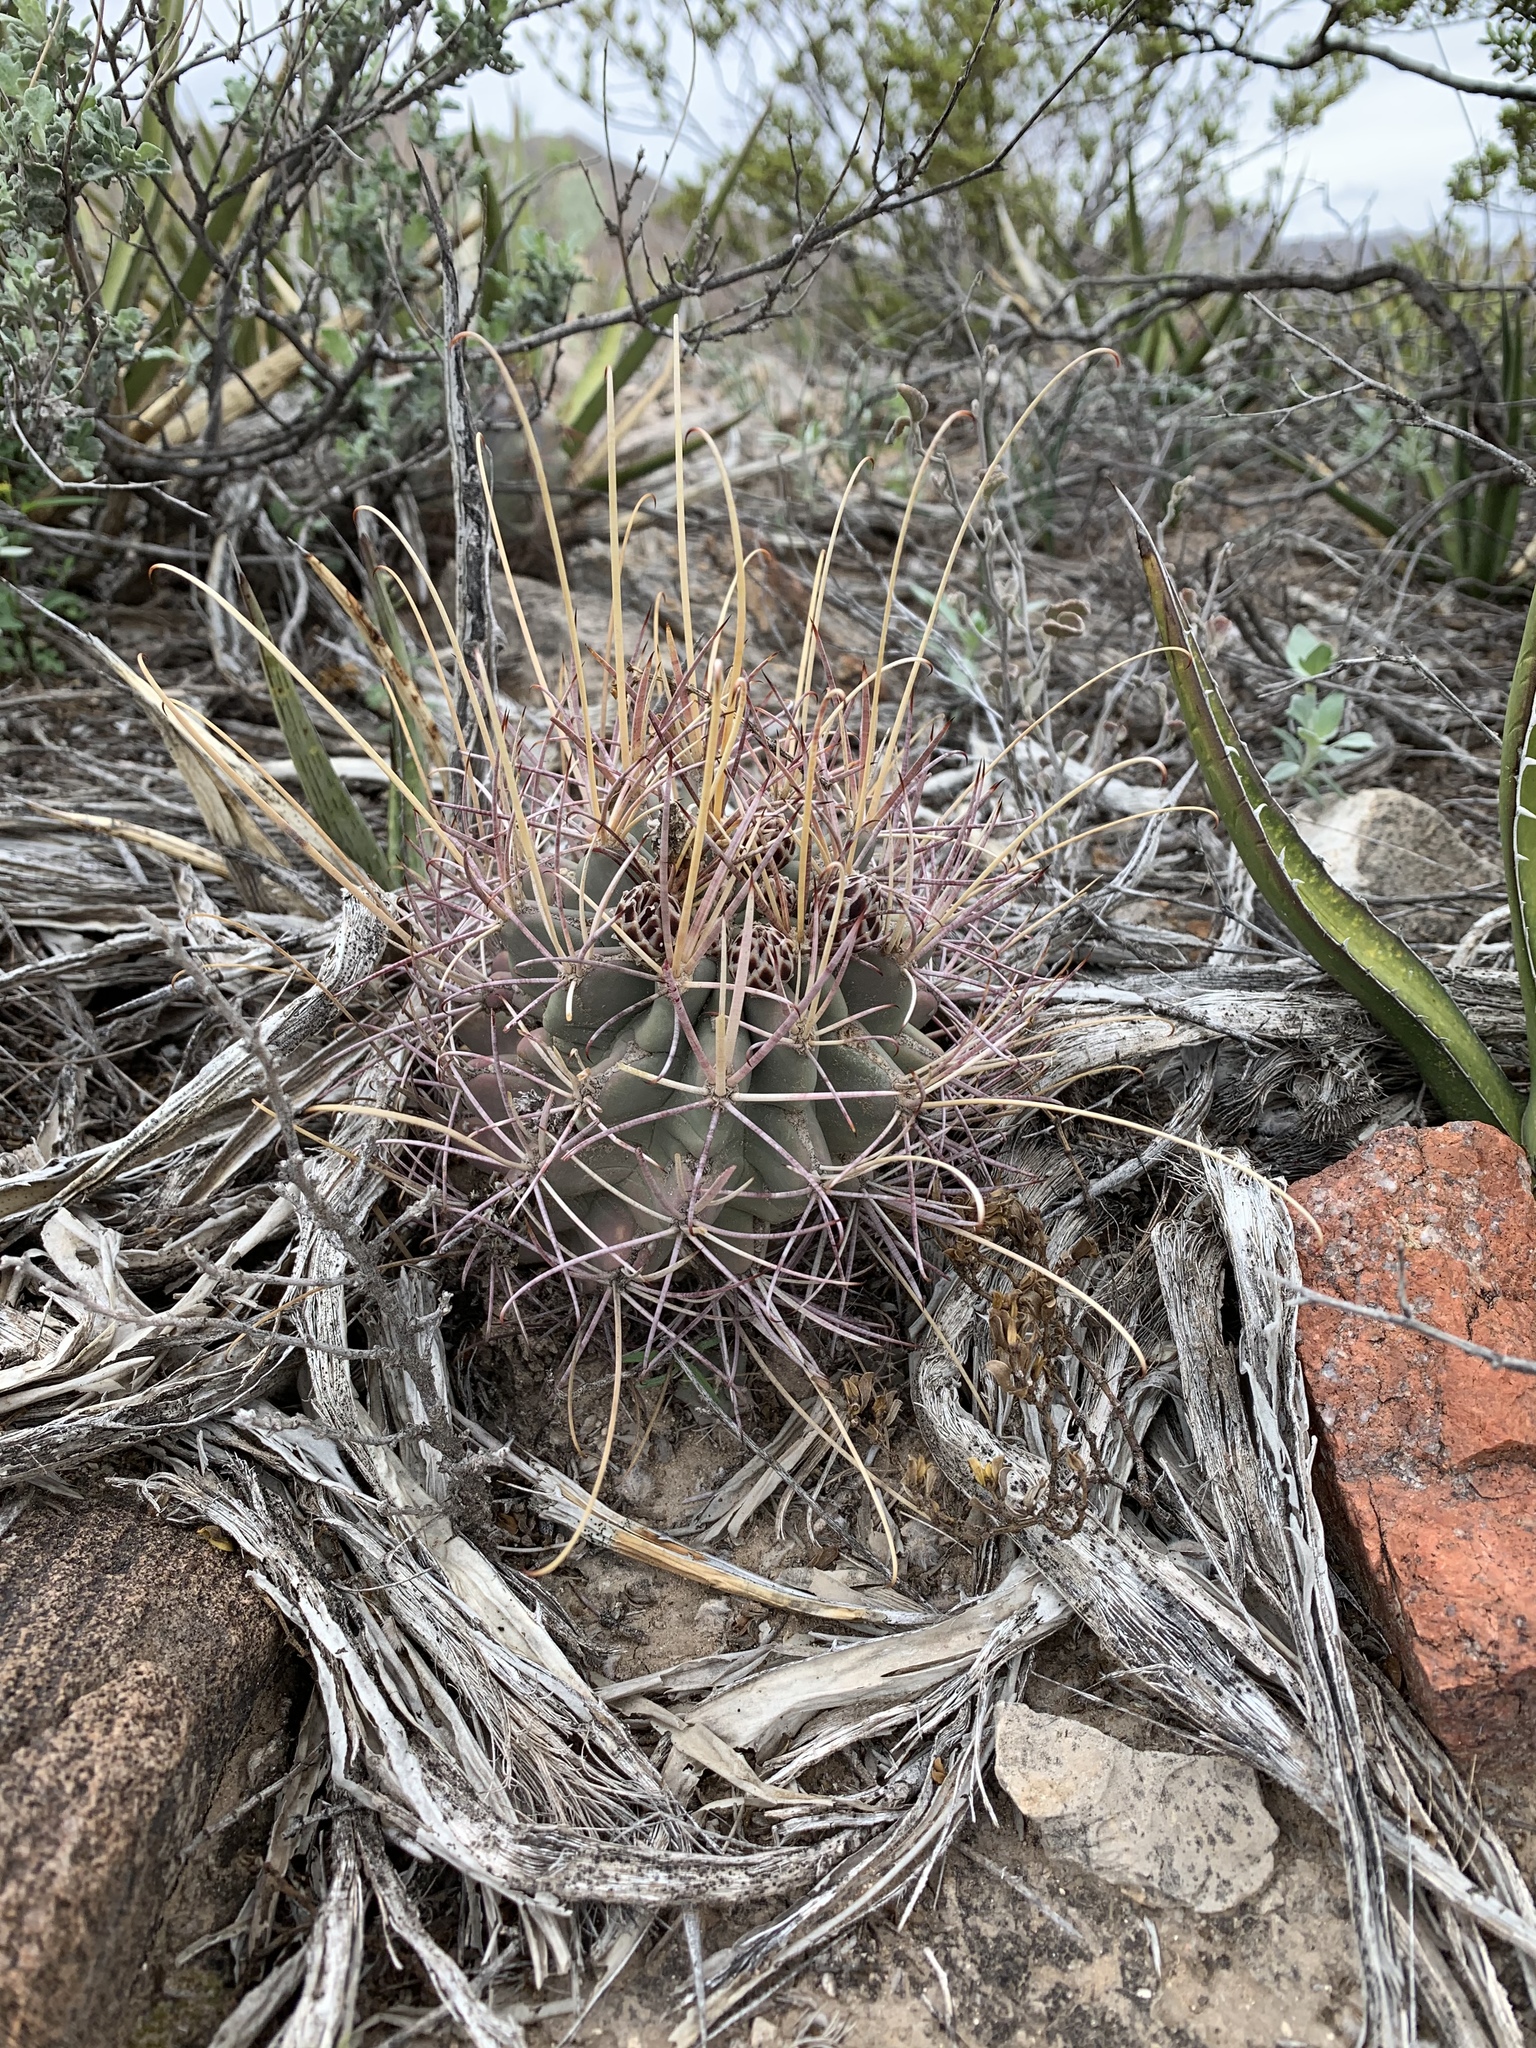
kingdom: Plantae
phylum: Tracheophyta
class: Magnoliopsida
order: Caryophyllales
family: Cactaceae
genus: Ferocactus
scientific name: Ferocactus uncinatus
